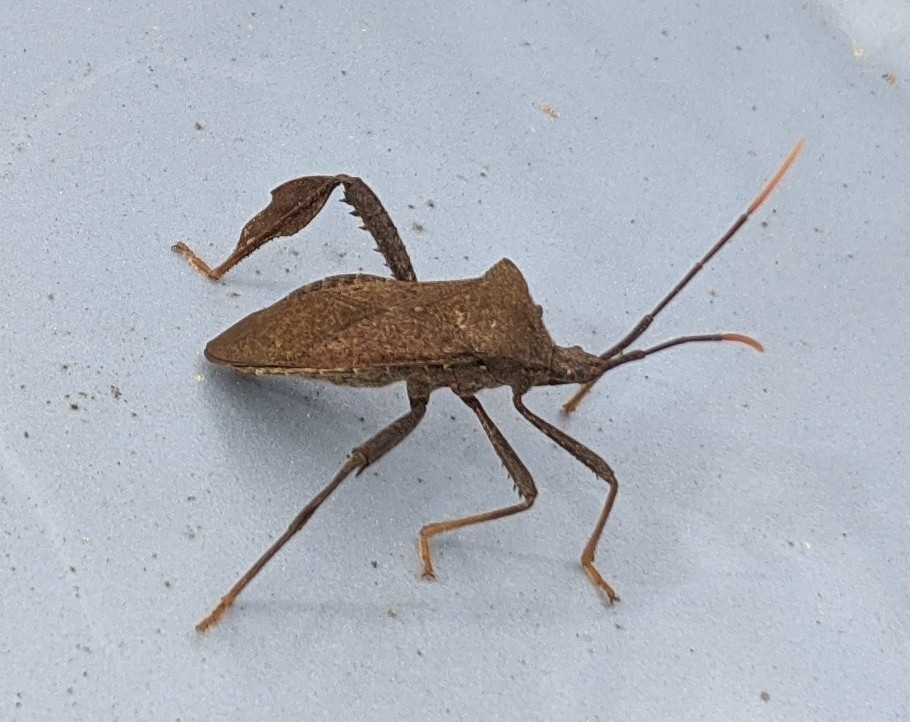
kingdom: Animalia
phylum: Arthropoda
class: Insecta
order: Hemiptera
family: Coreidae
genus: Acanthocephala
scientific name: Acanthocephala terminalis
